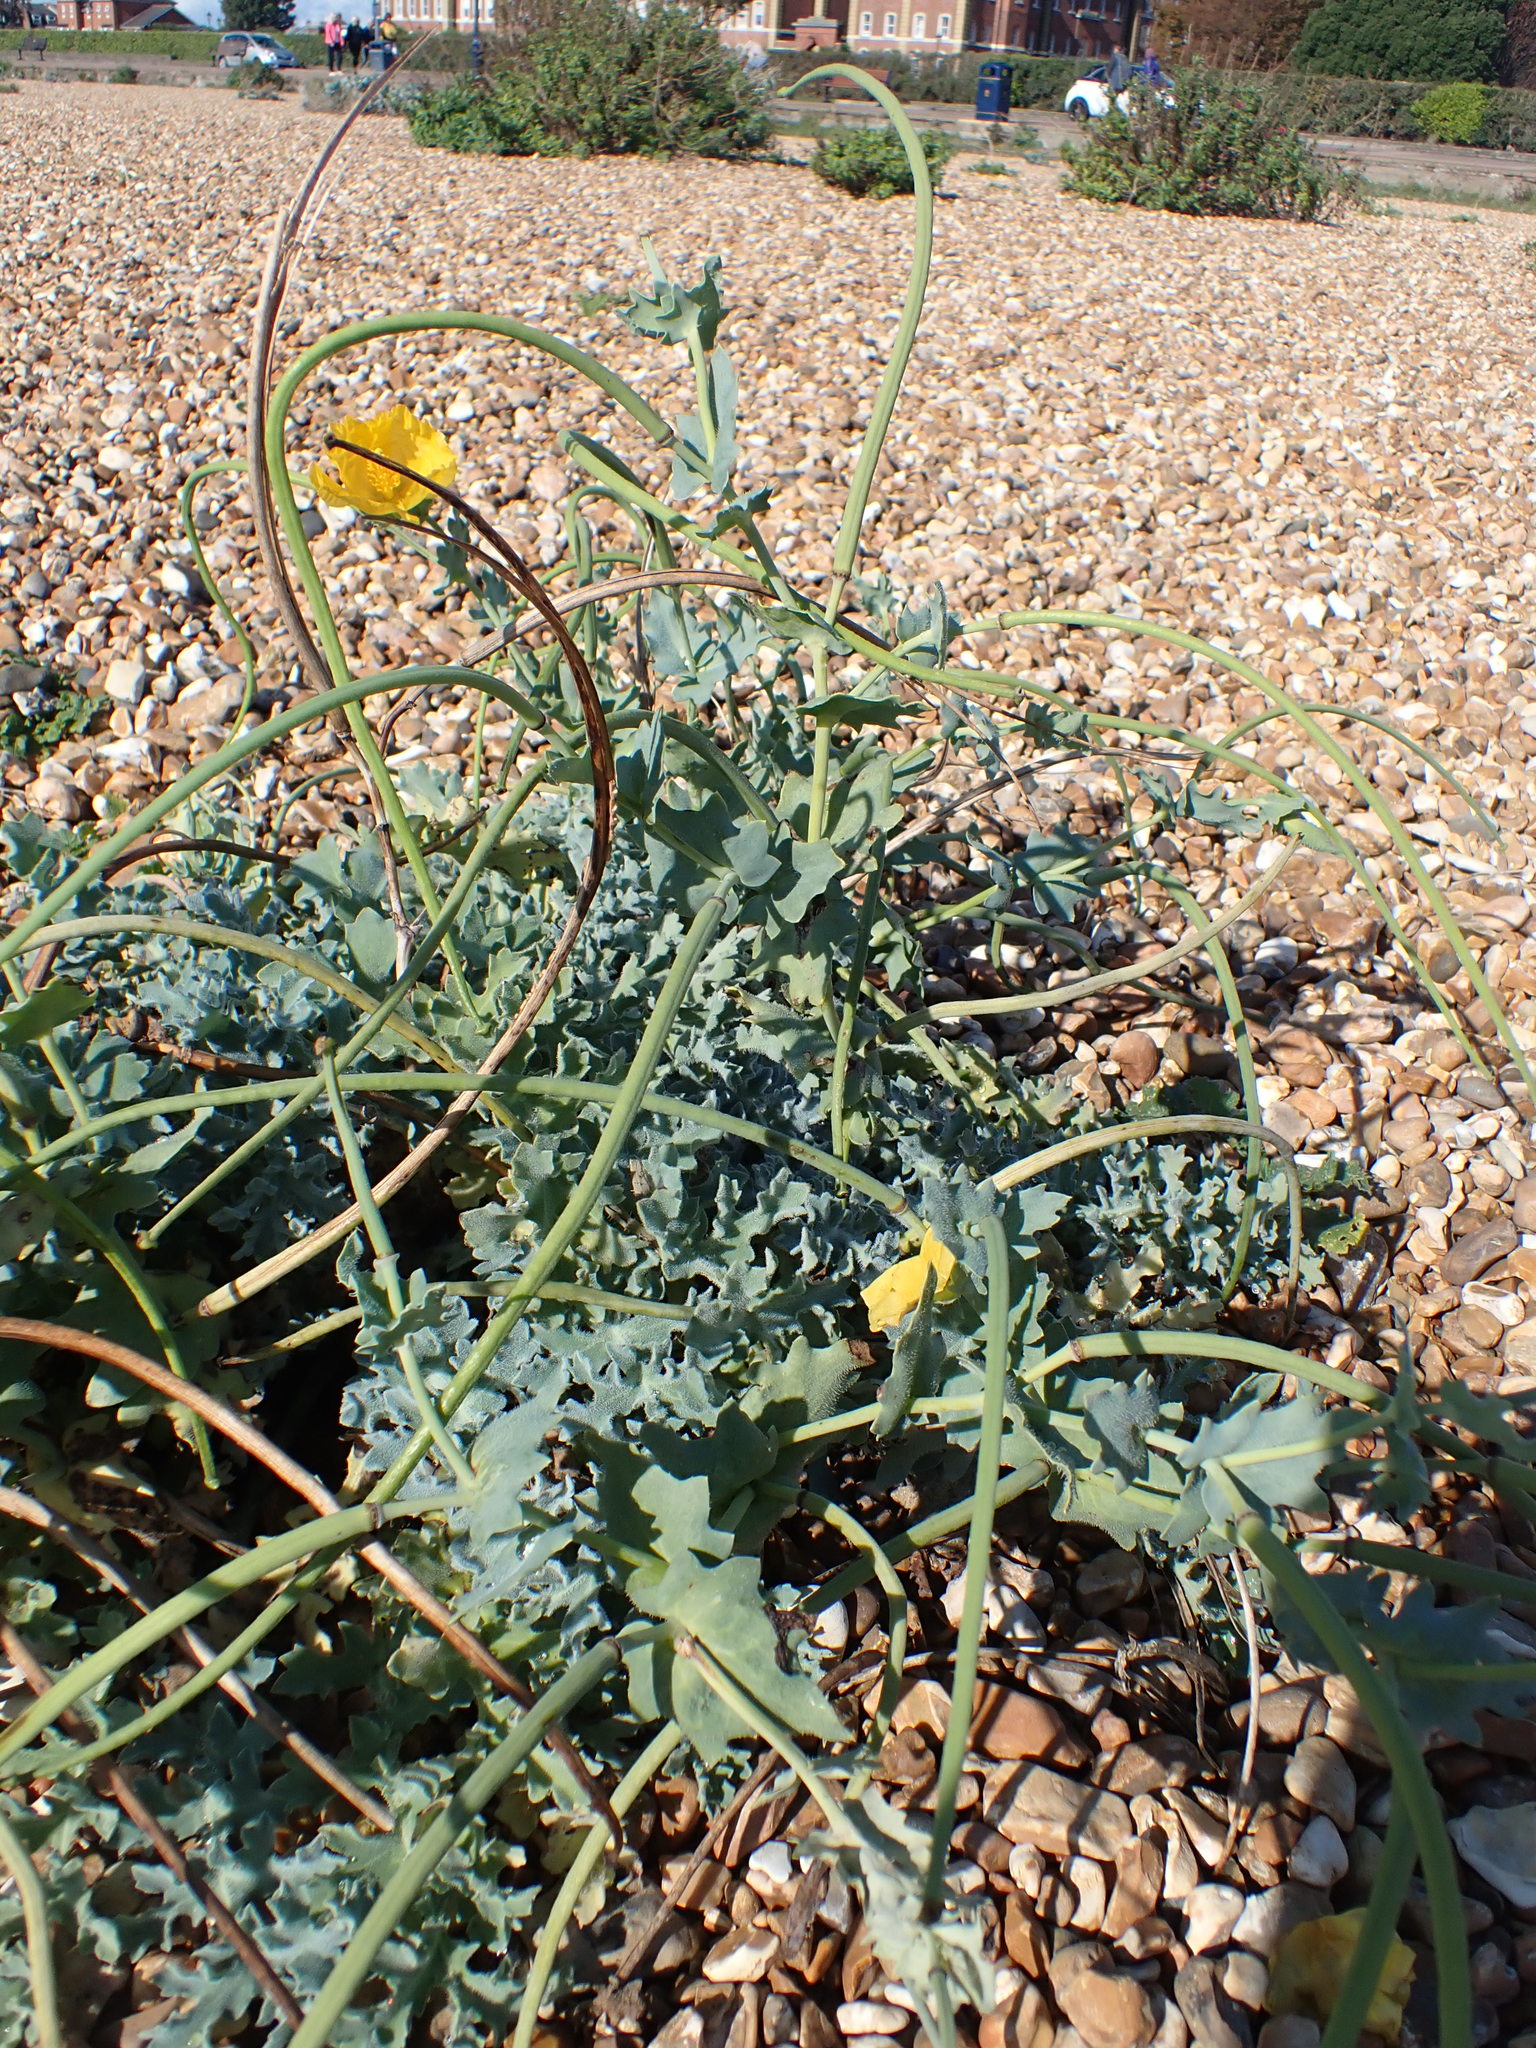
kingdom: Plantae
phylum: Tracheophyta
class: Magnoliopsida
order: Ranunculales
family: Papaveraceae
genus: Glaucium
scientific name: Glaucium flavum
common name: Yellow horned-poppy
